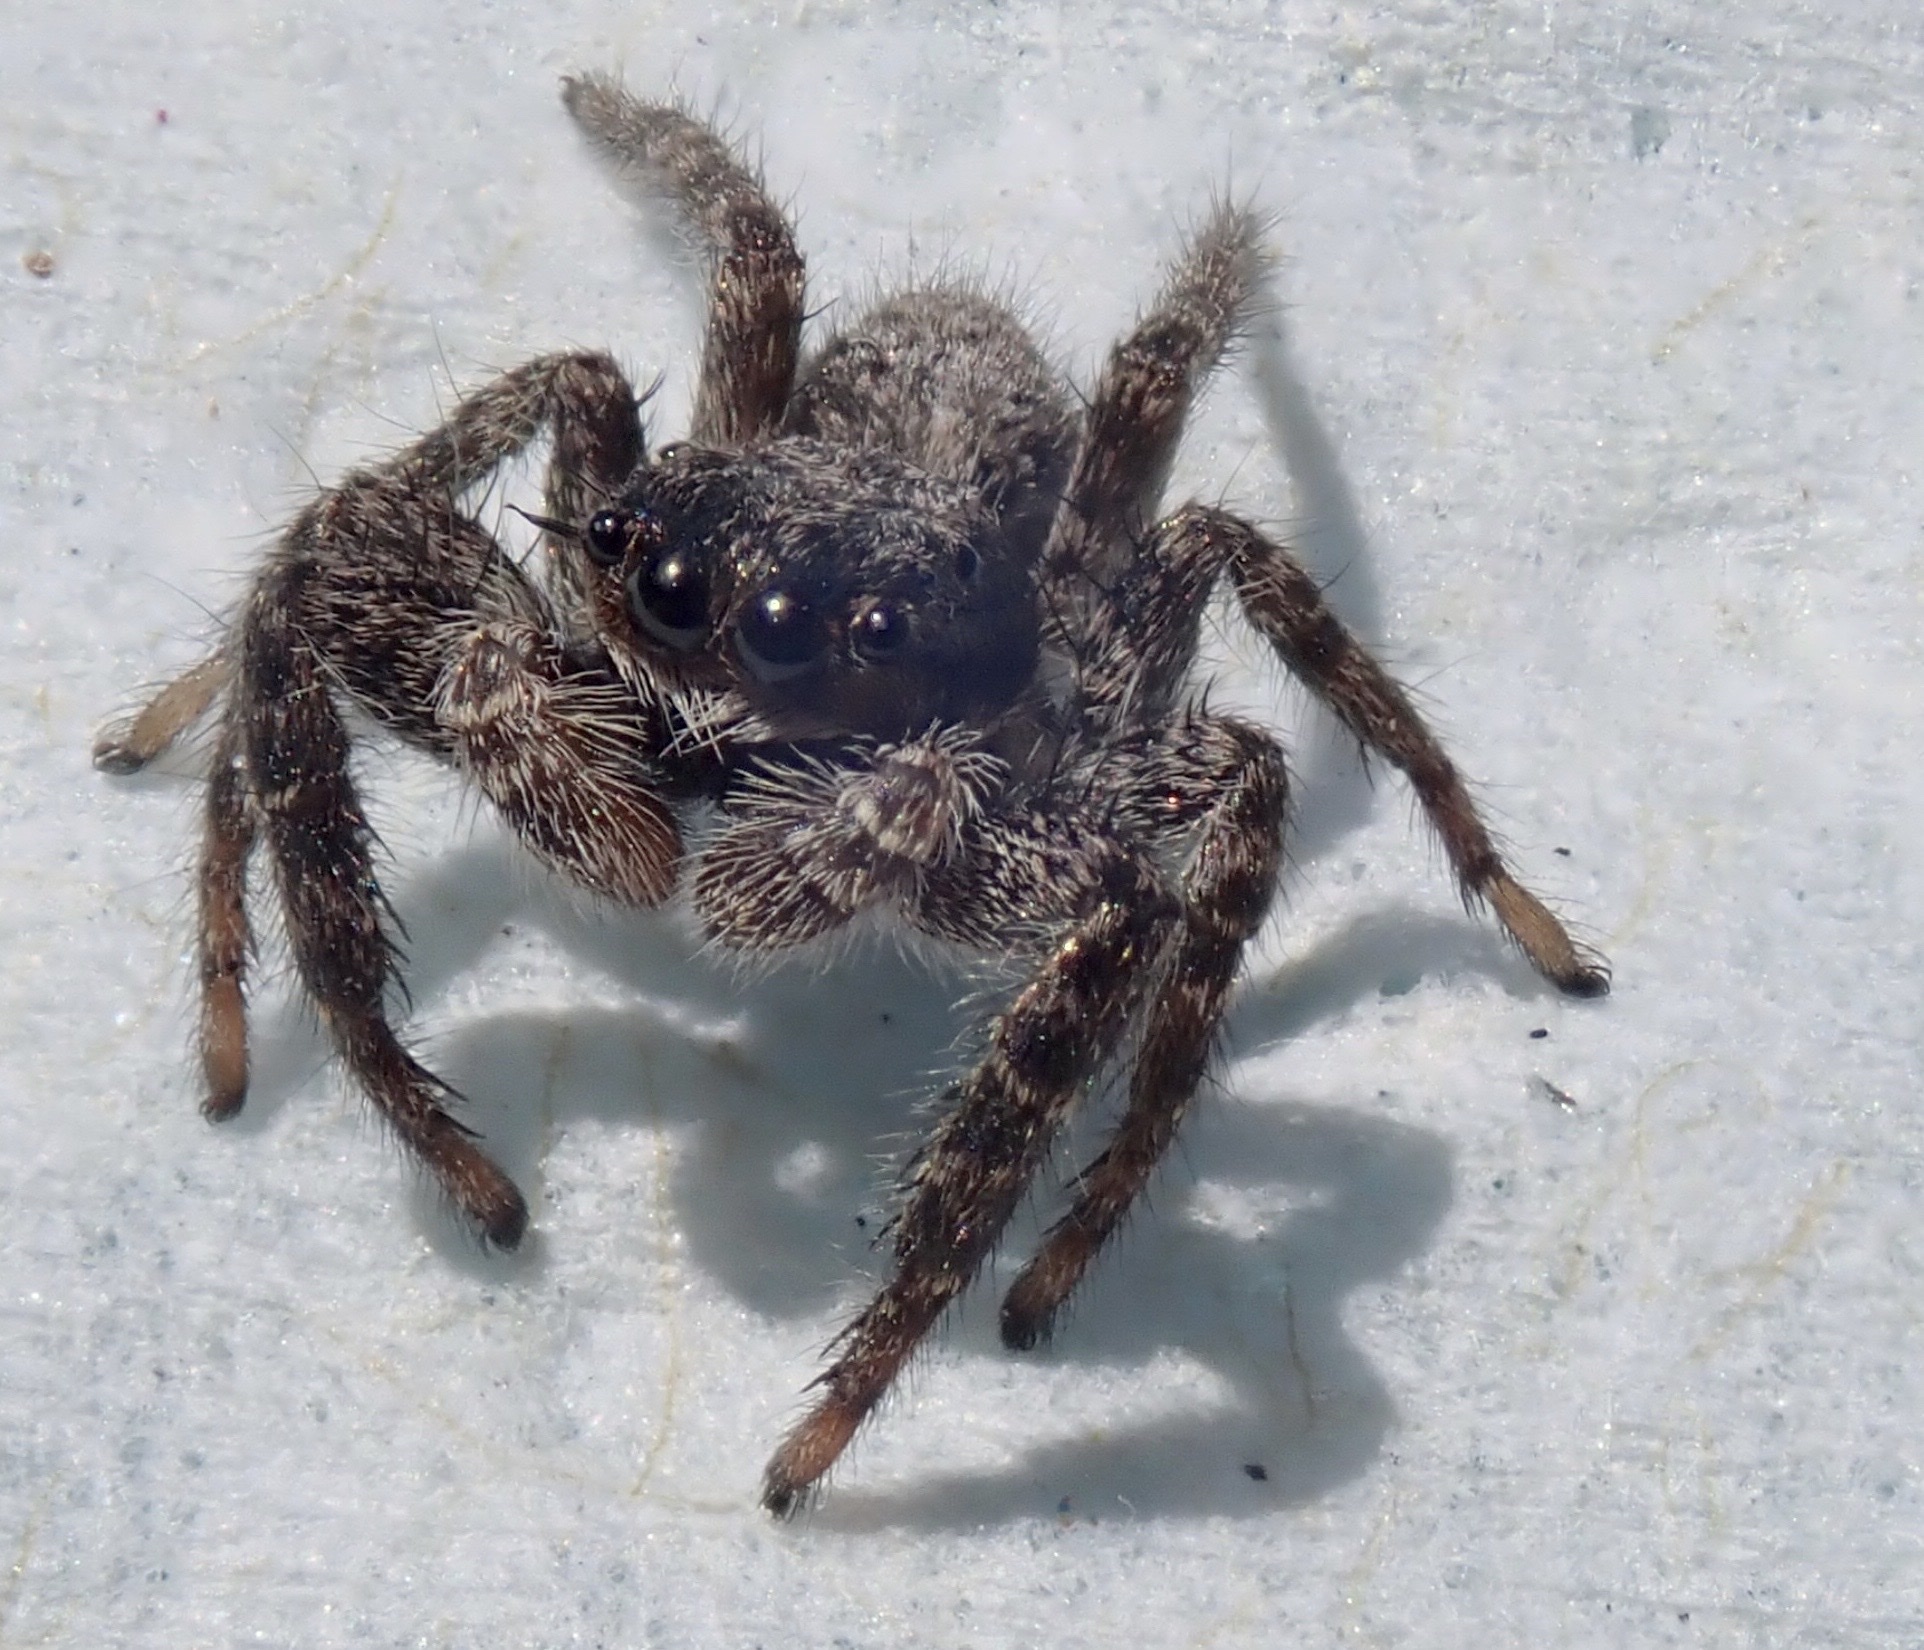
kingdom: Animalia
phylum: Arthropoda
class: Arachnida
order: Araneae
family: Salticidae
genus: Platycryptus
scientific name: Platycryptus californicus
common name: Jumping spiders
